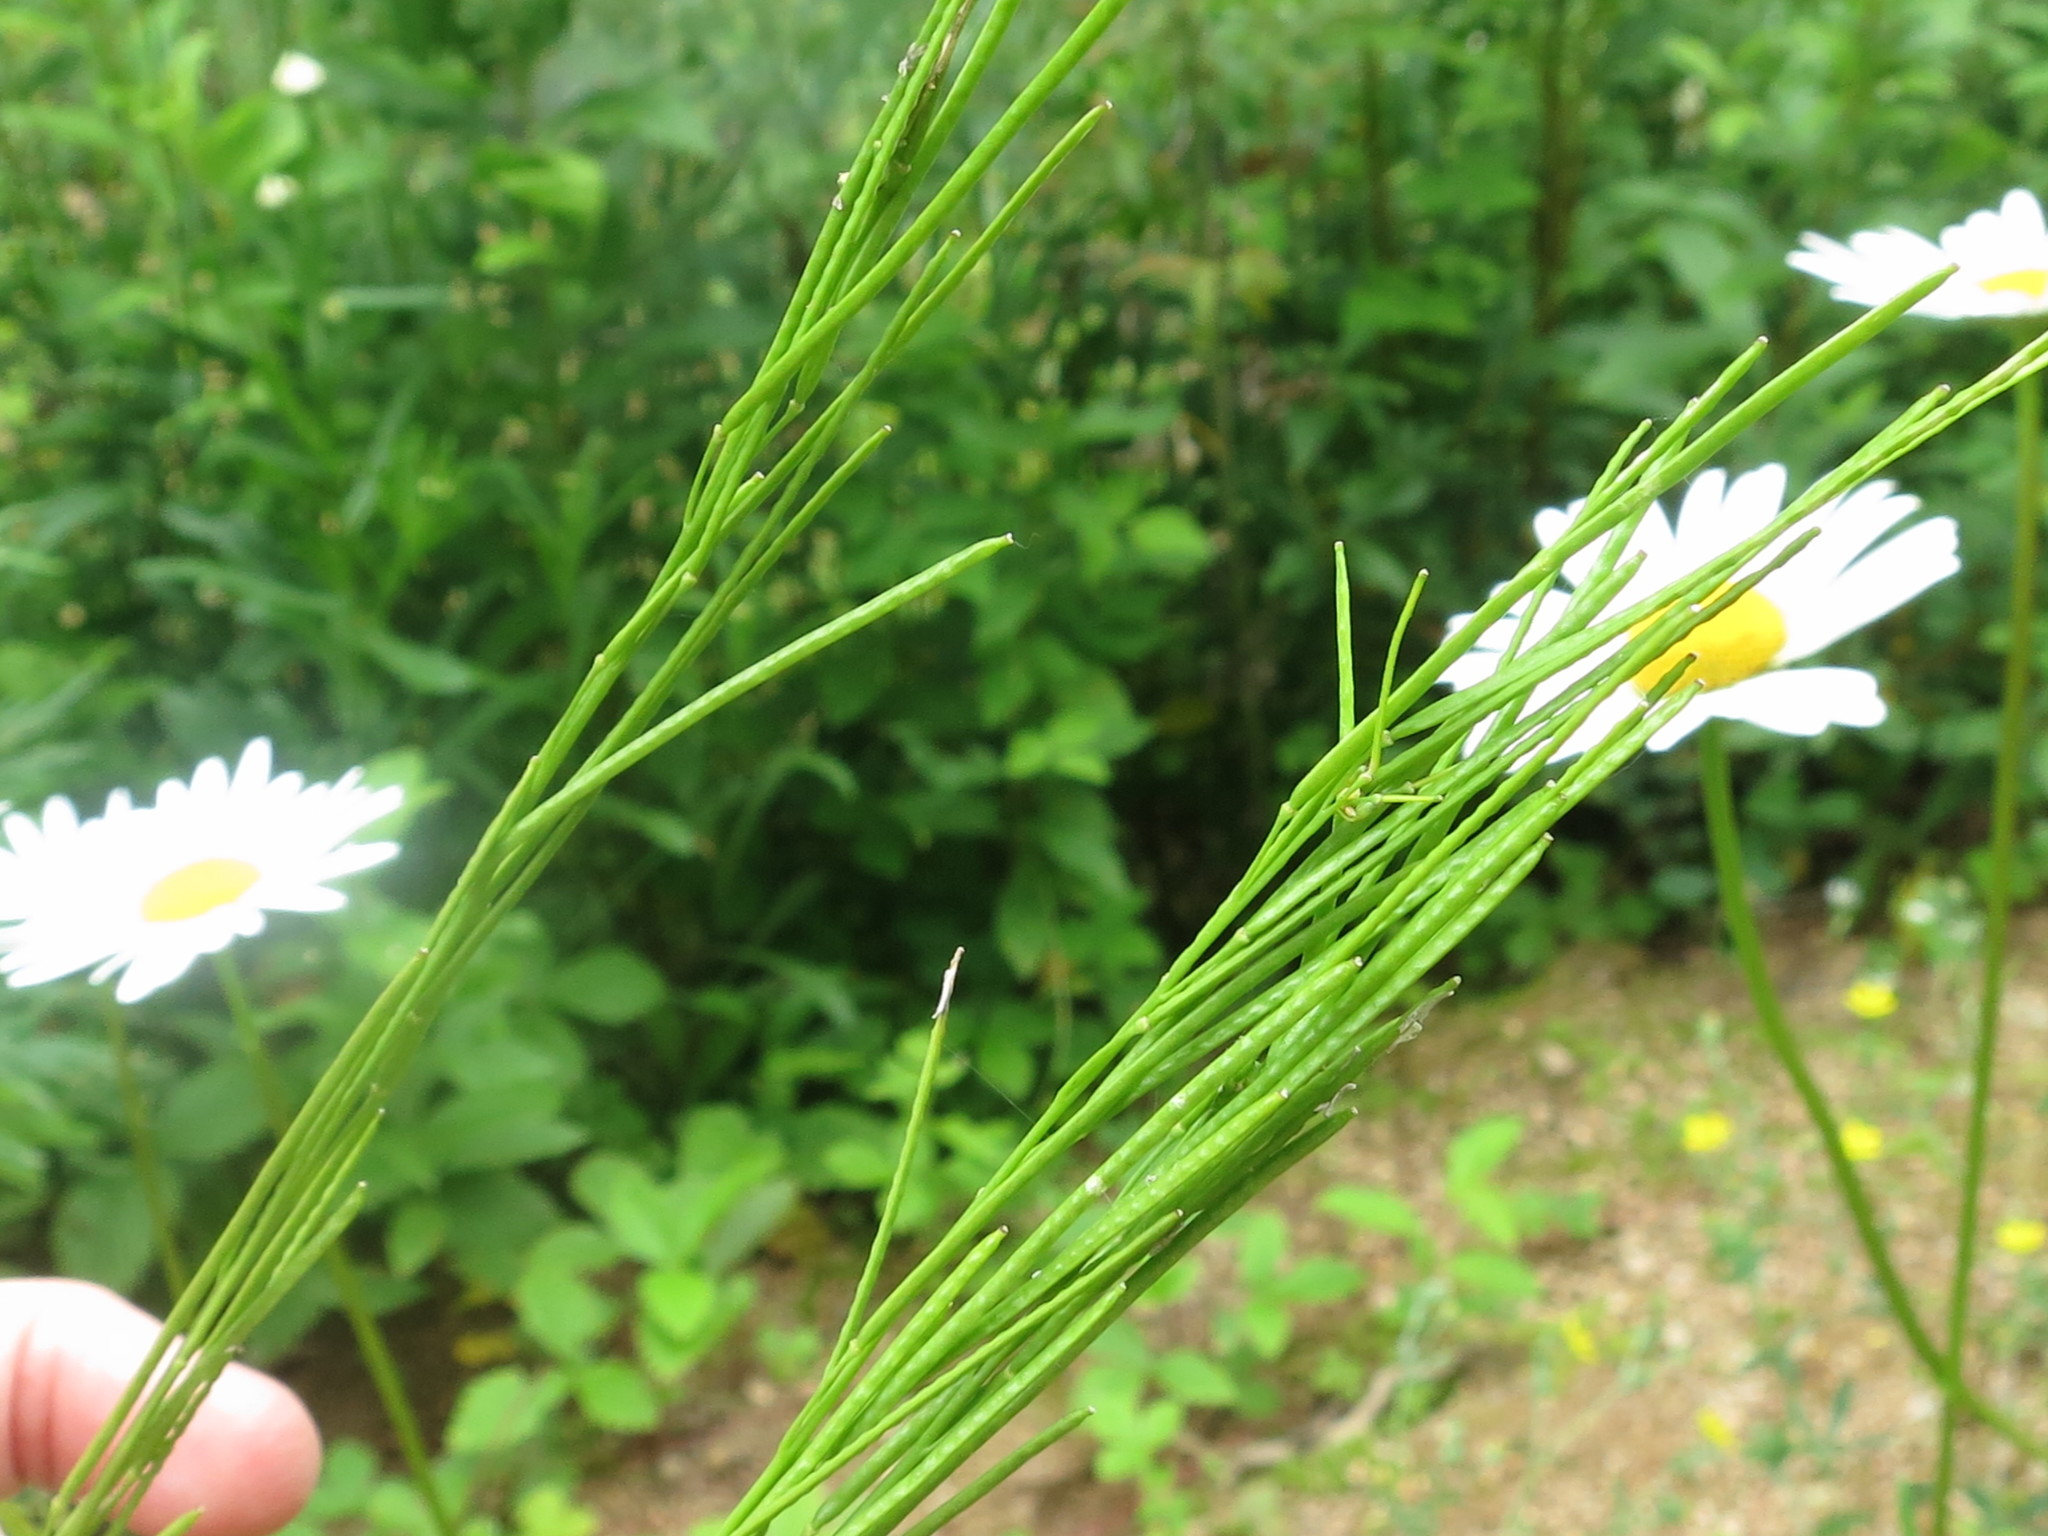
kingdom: Plantae
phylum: Tracheophyta
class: Magnoliopsida
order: Brassicales
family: Brassicaceae
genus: Arabis
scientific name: Arabis borealis
